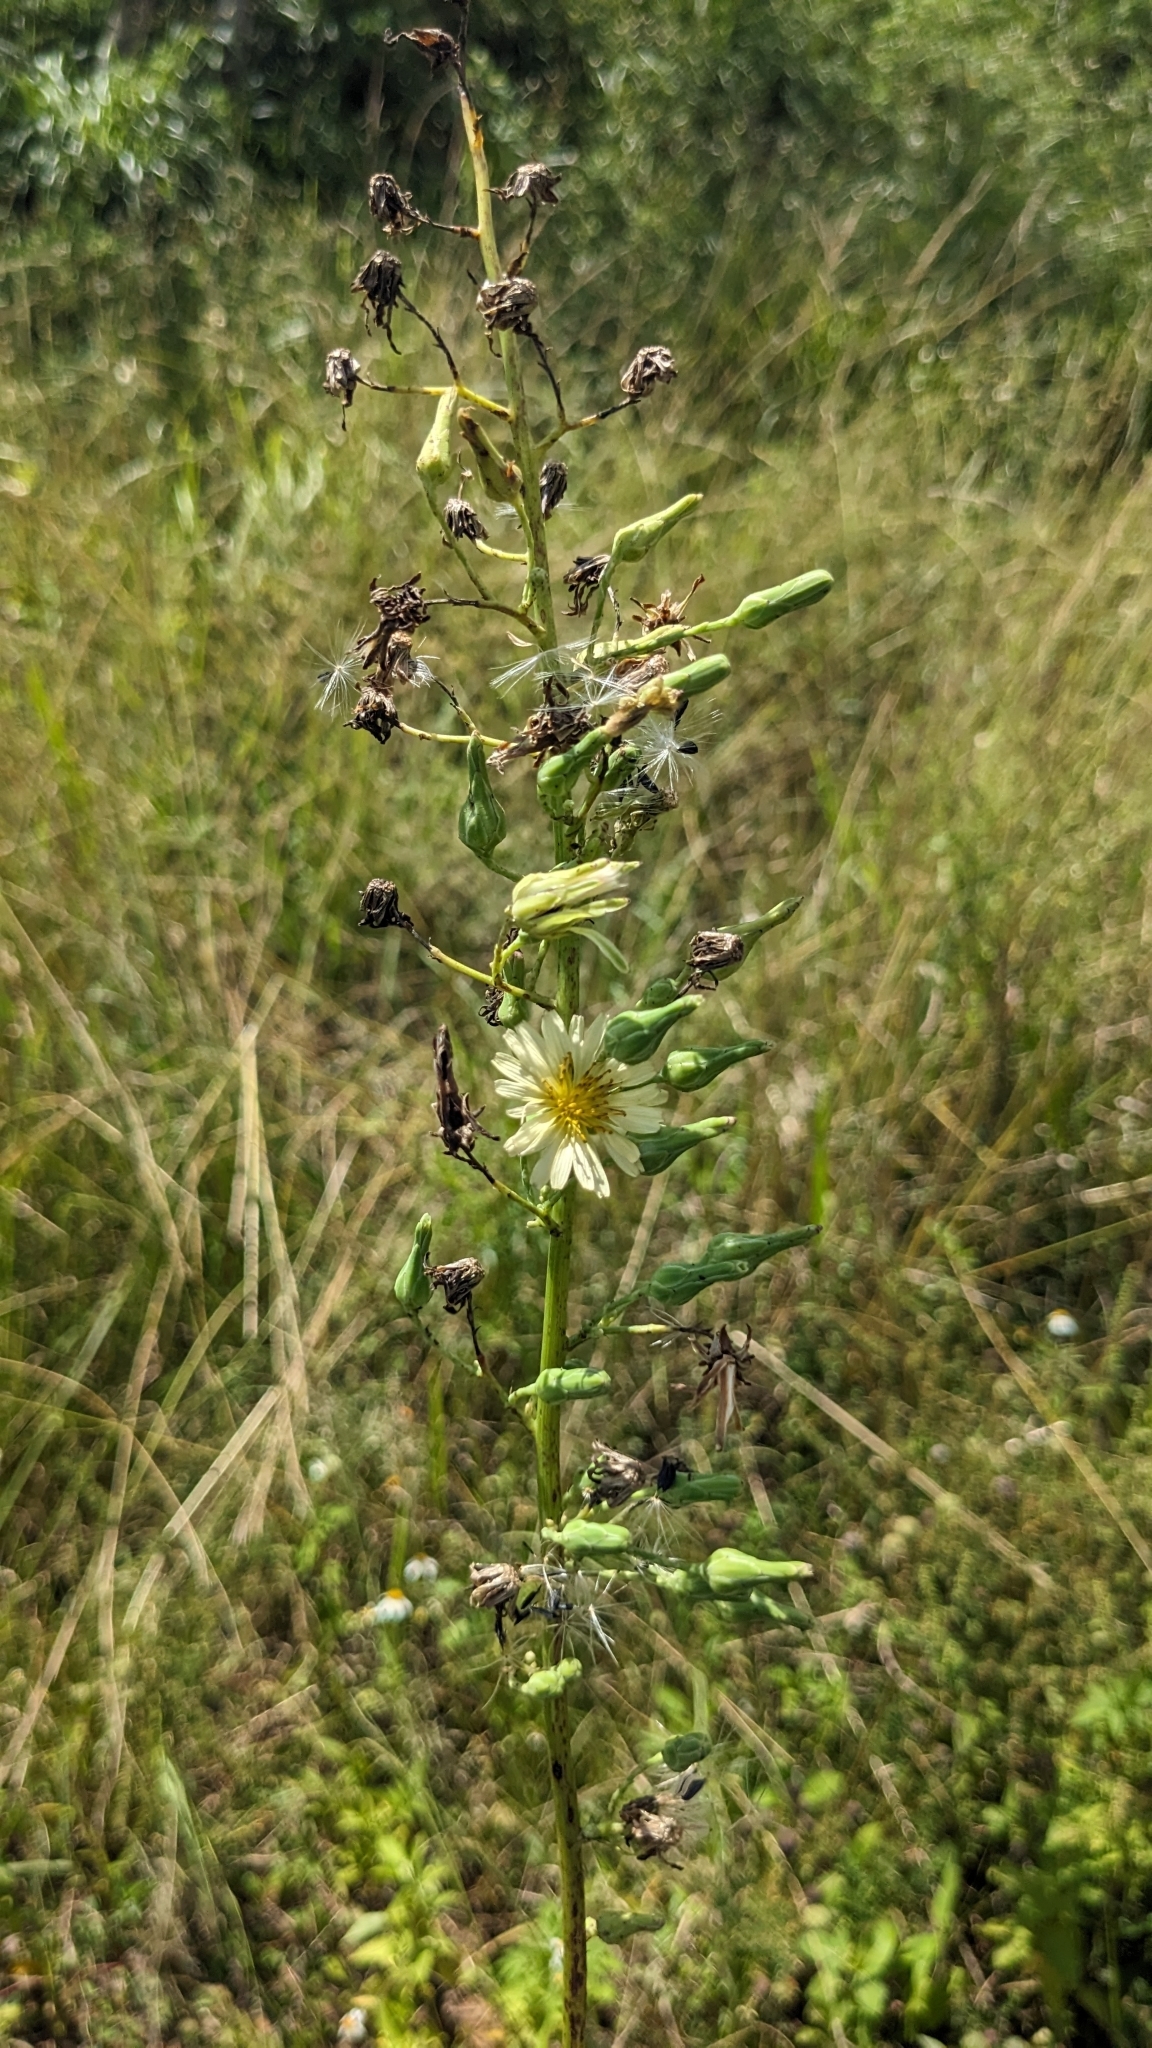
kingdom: Plantae
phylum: Tracheophyta
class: Magnoliopsida
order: Asterales
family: Asteraceae
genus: Lactuca
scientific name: Lactuca indica
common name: Wild lettuce
